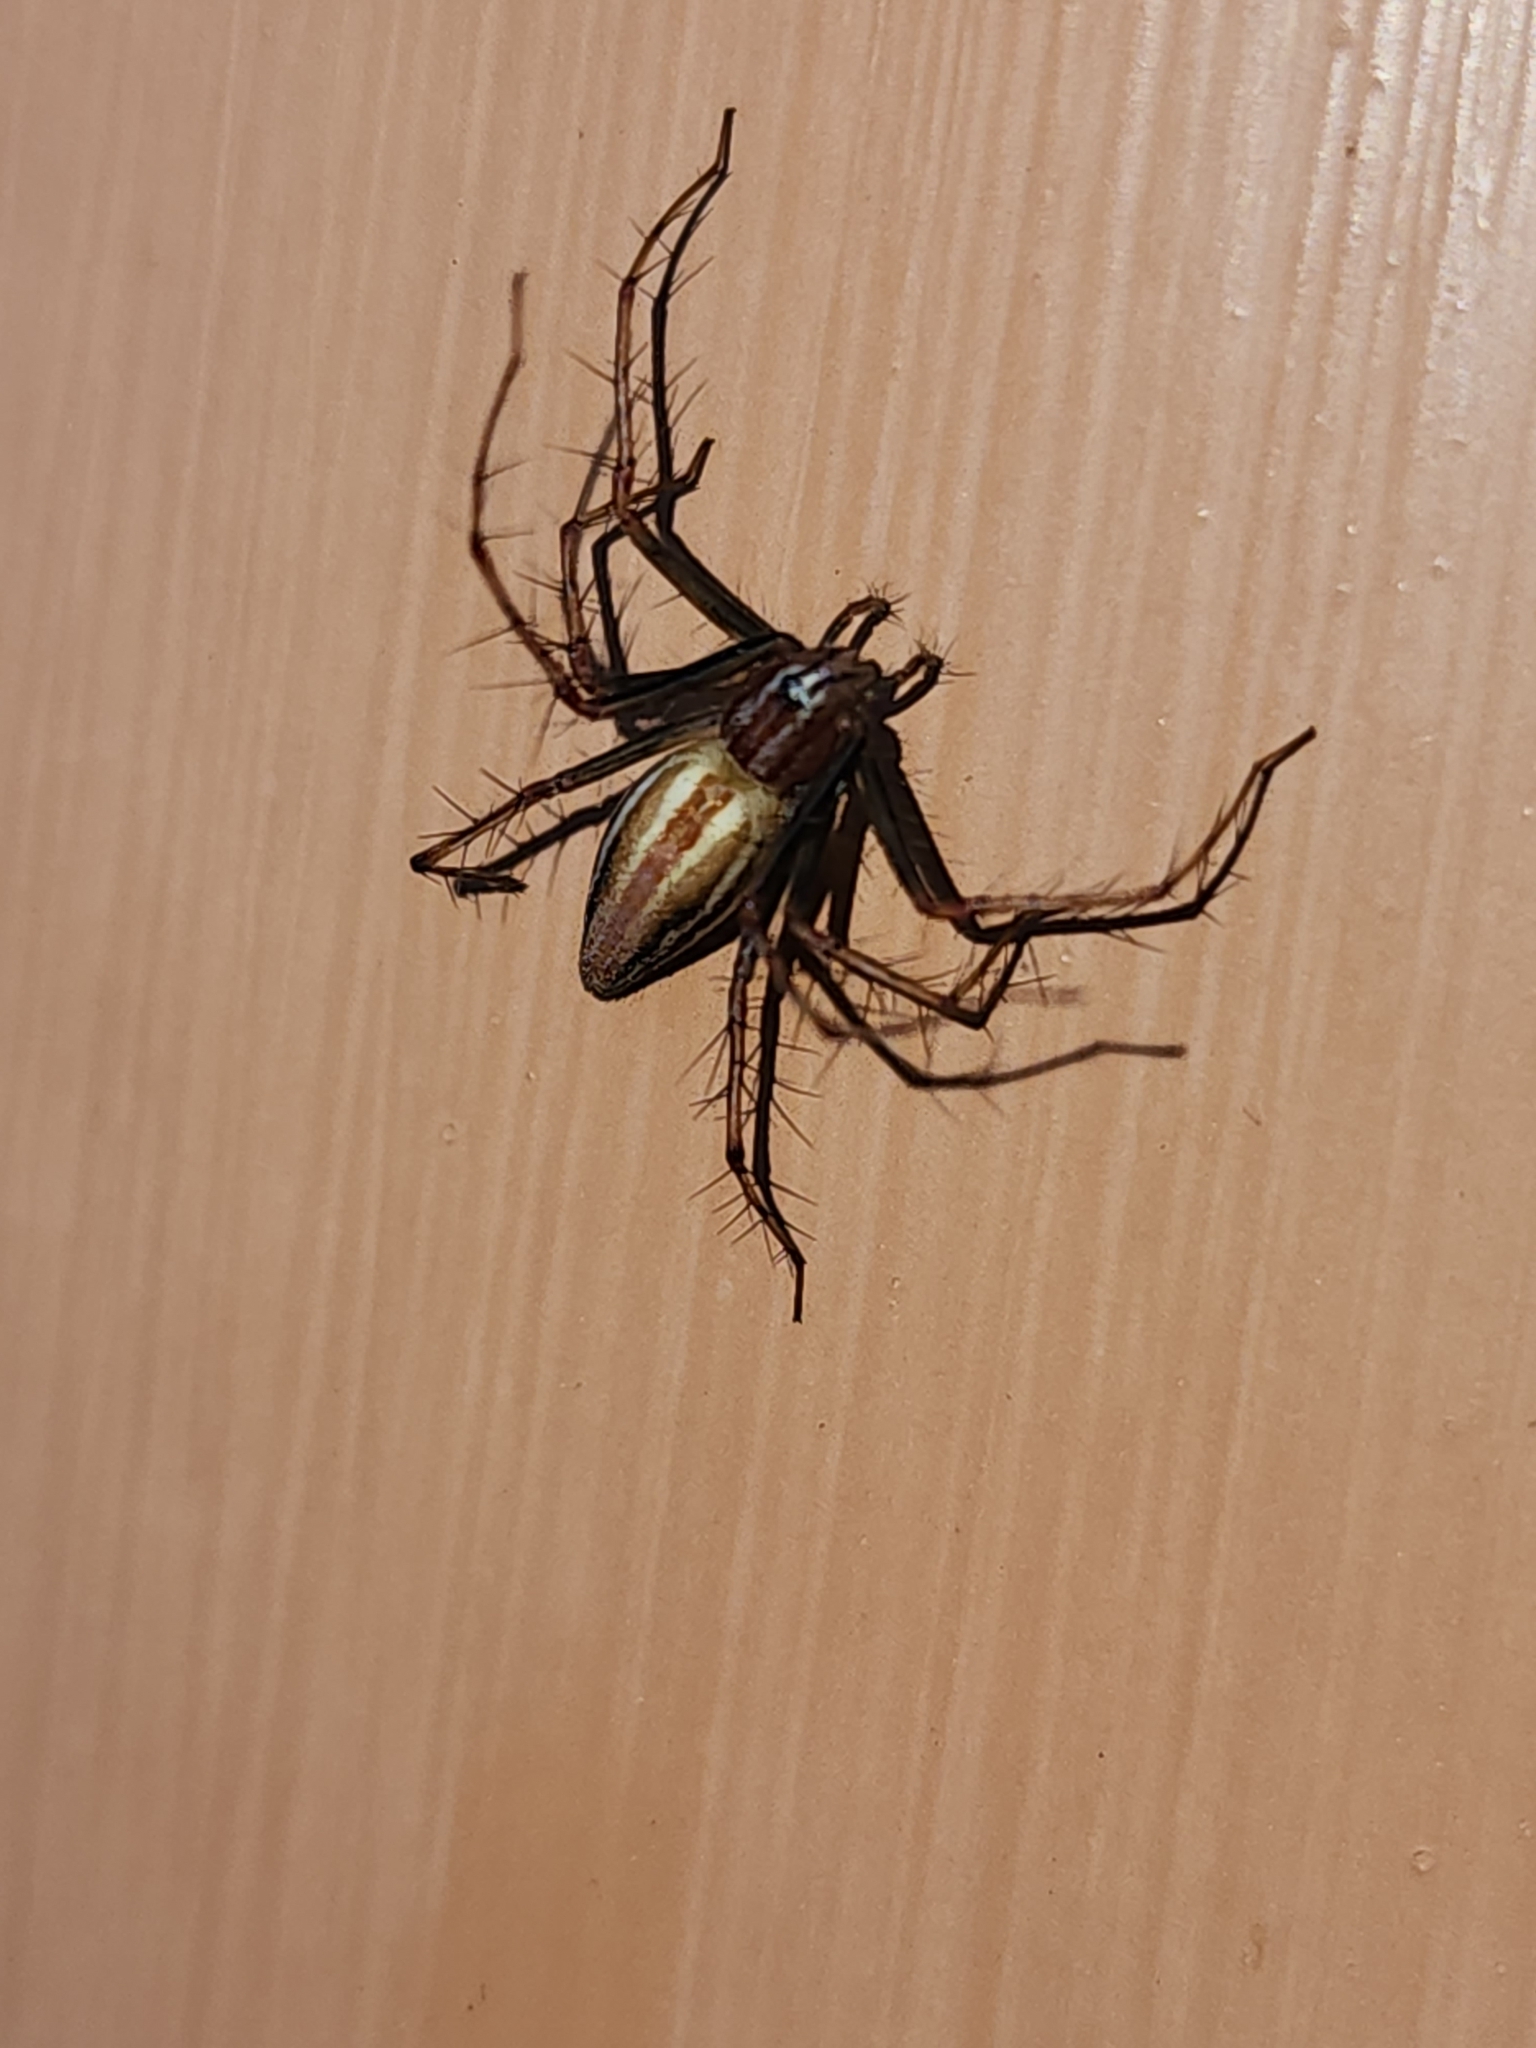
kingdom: Animalia
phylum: Arthropoda
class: Arachnida
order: Araneae
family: Oxyopidae
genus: Oxyopes
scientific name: Oxyopes macilentus
